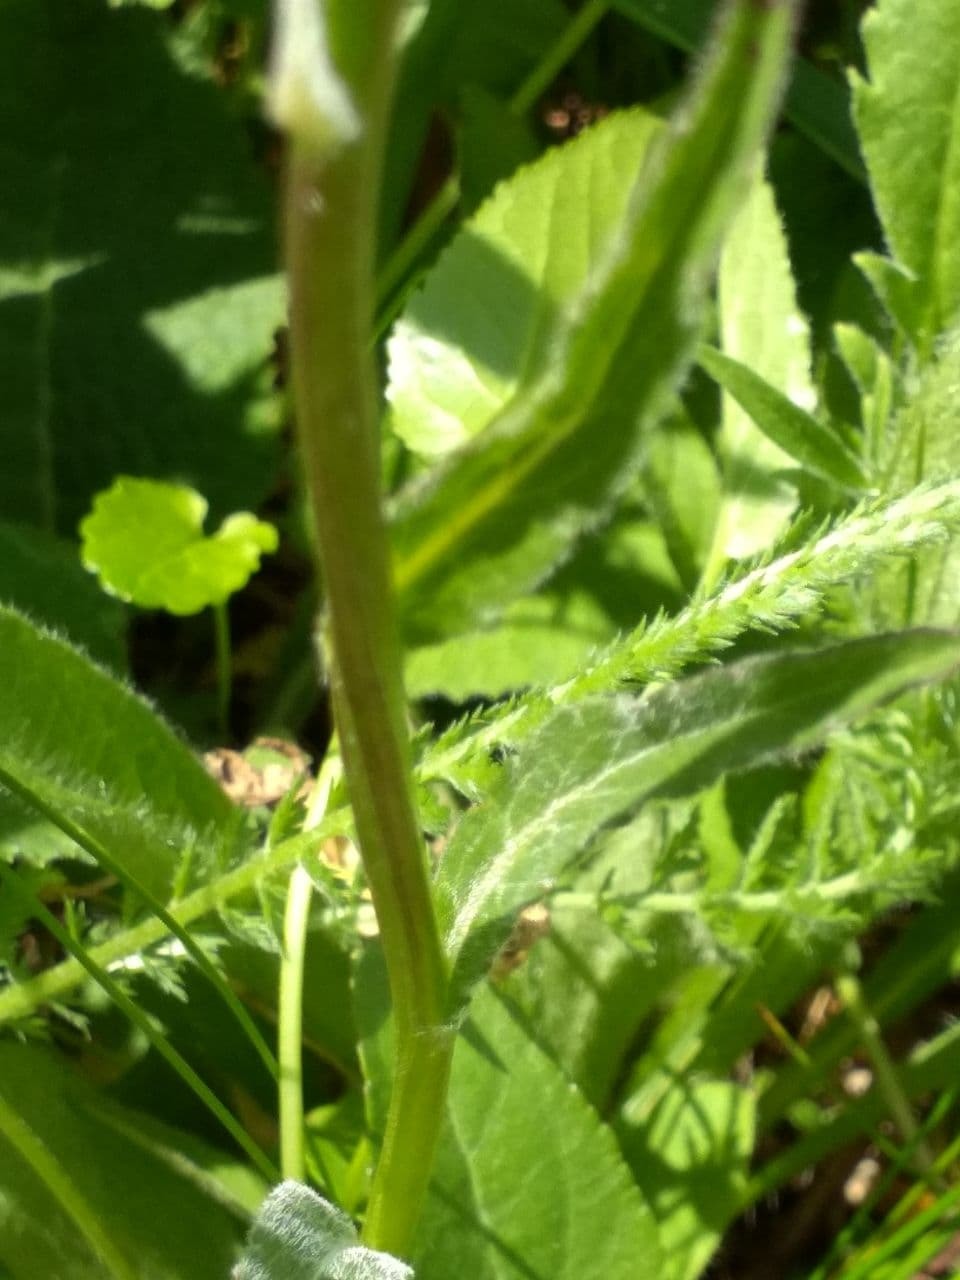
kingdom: Plantae
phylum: Tracheophyta
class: Magnoliopsida
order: Asterales
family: Campanulaceae
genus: Phyteuma
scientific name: Phyteuma orbiculare
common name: Round-headed rampion
